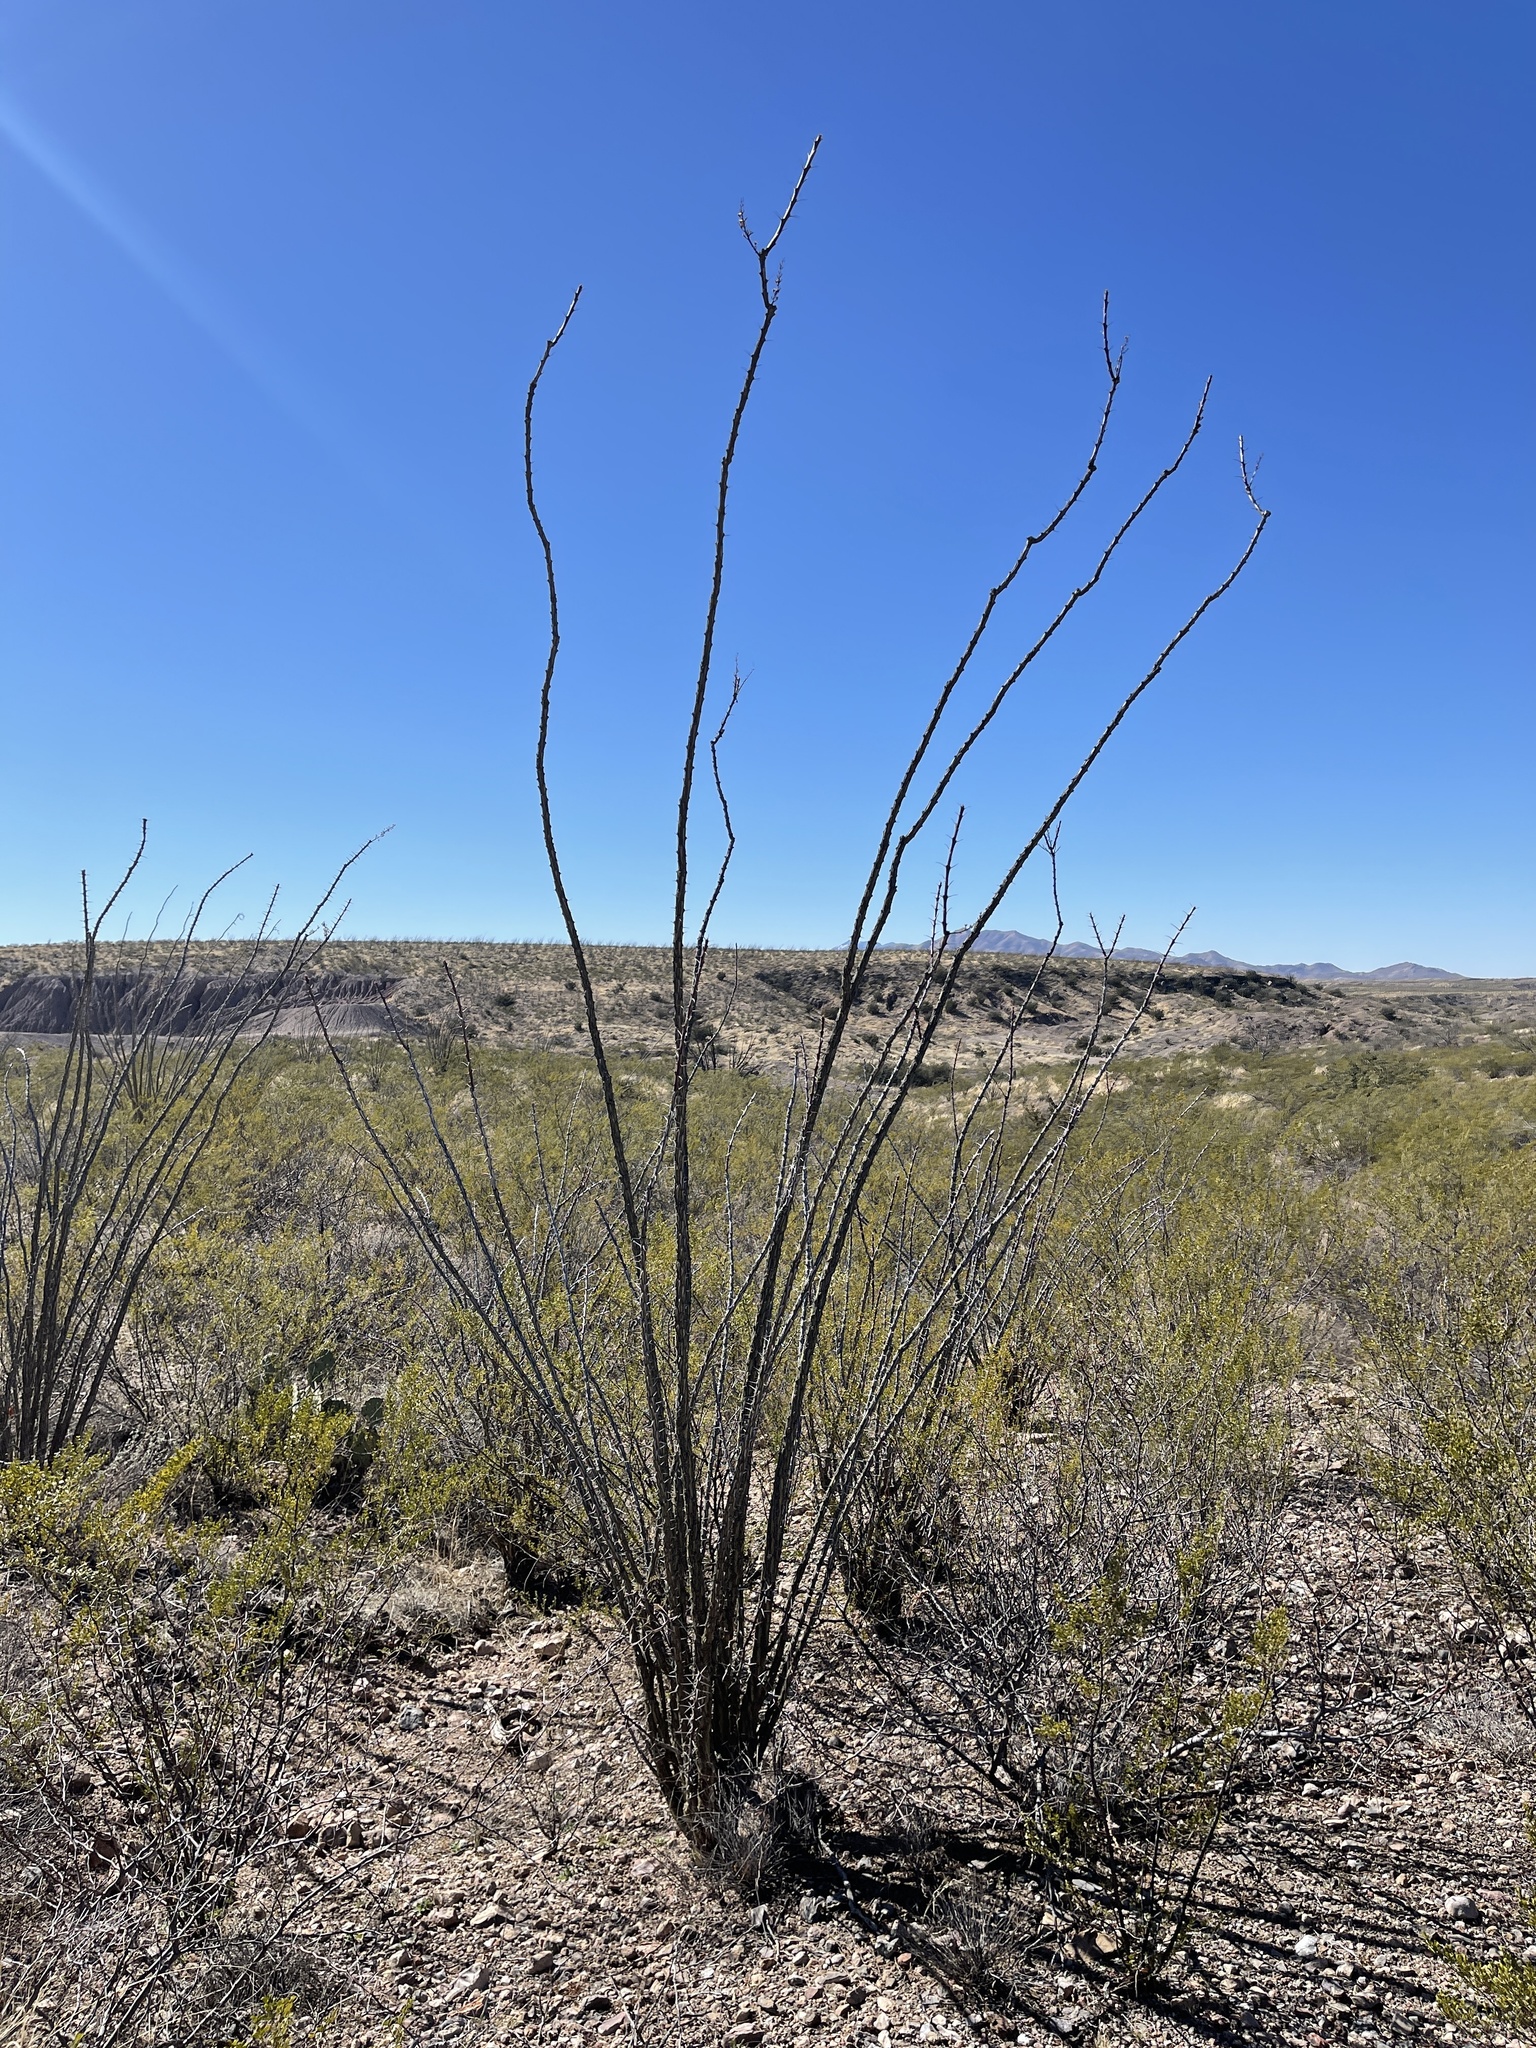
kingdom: Plantae
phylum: Tracheophyta
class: Magnoliopsida
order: Ericales
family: Fouquieriaceae
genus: Fouquieria
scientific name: Fouquieria splendens
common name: Vine-cactus
